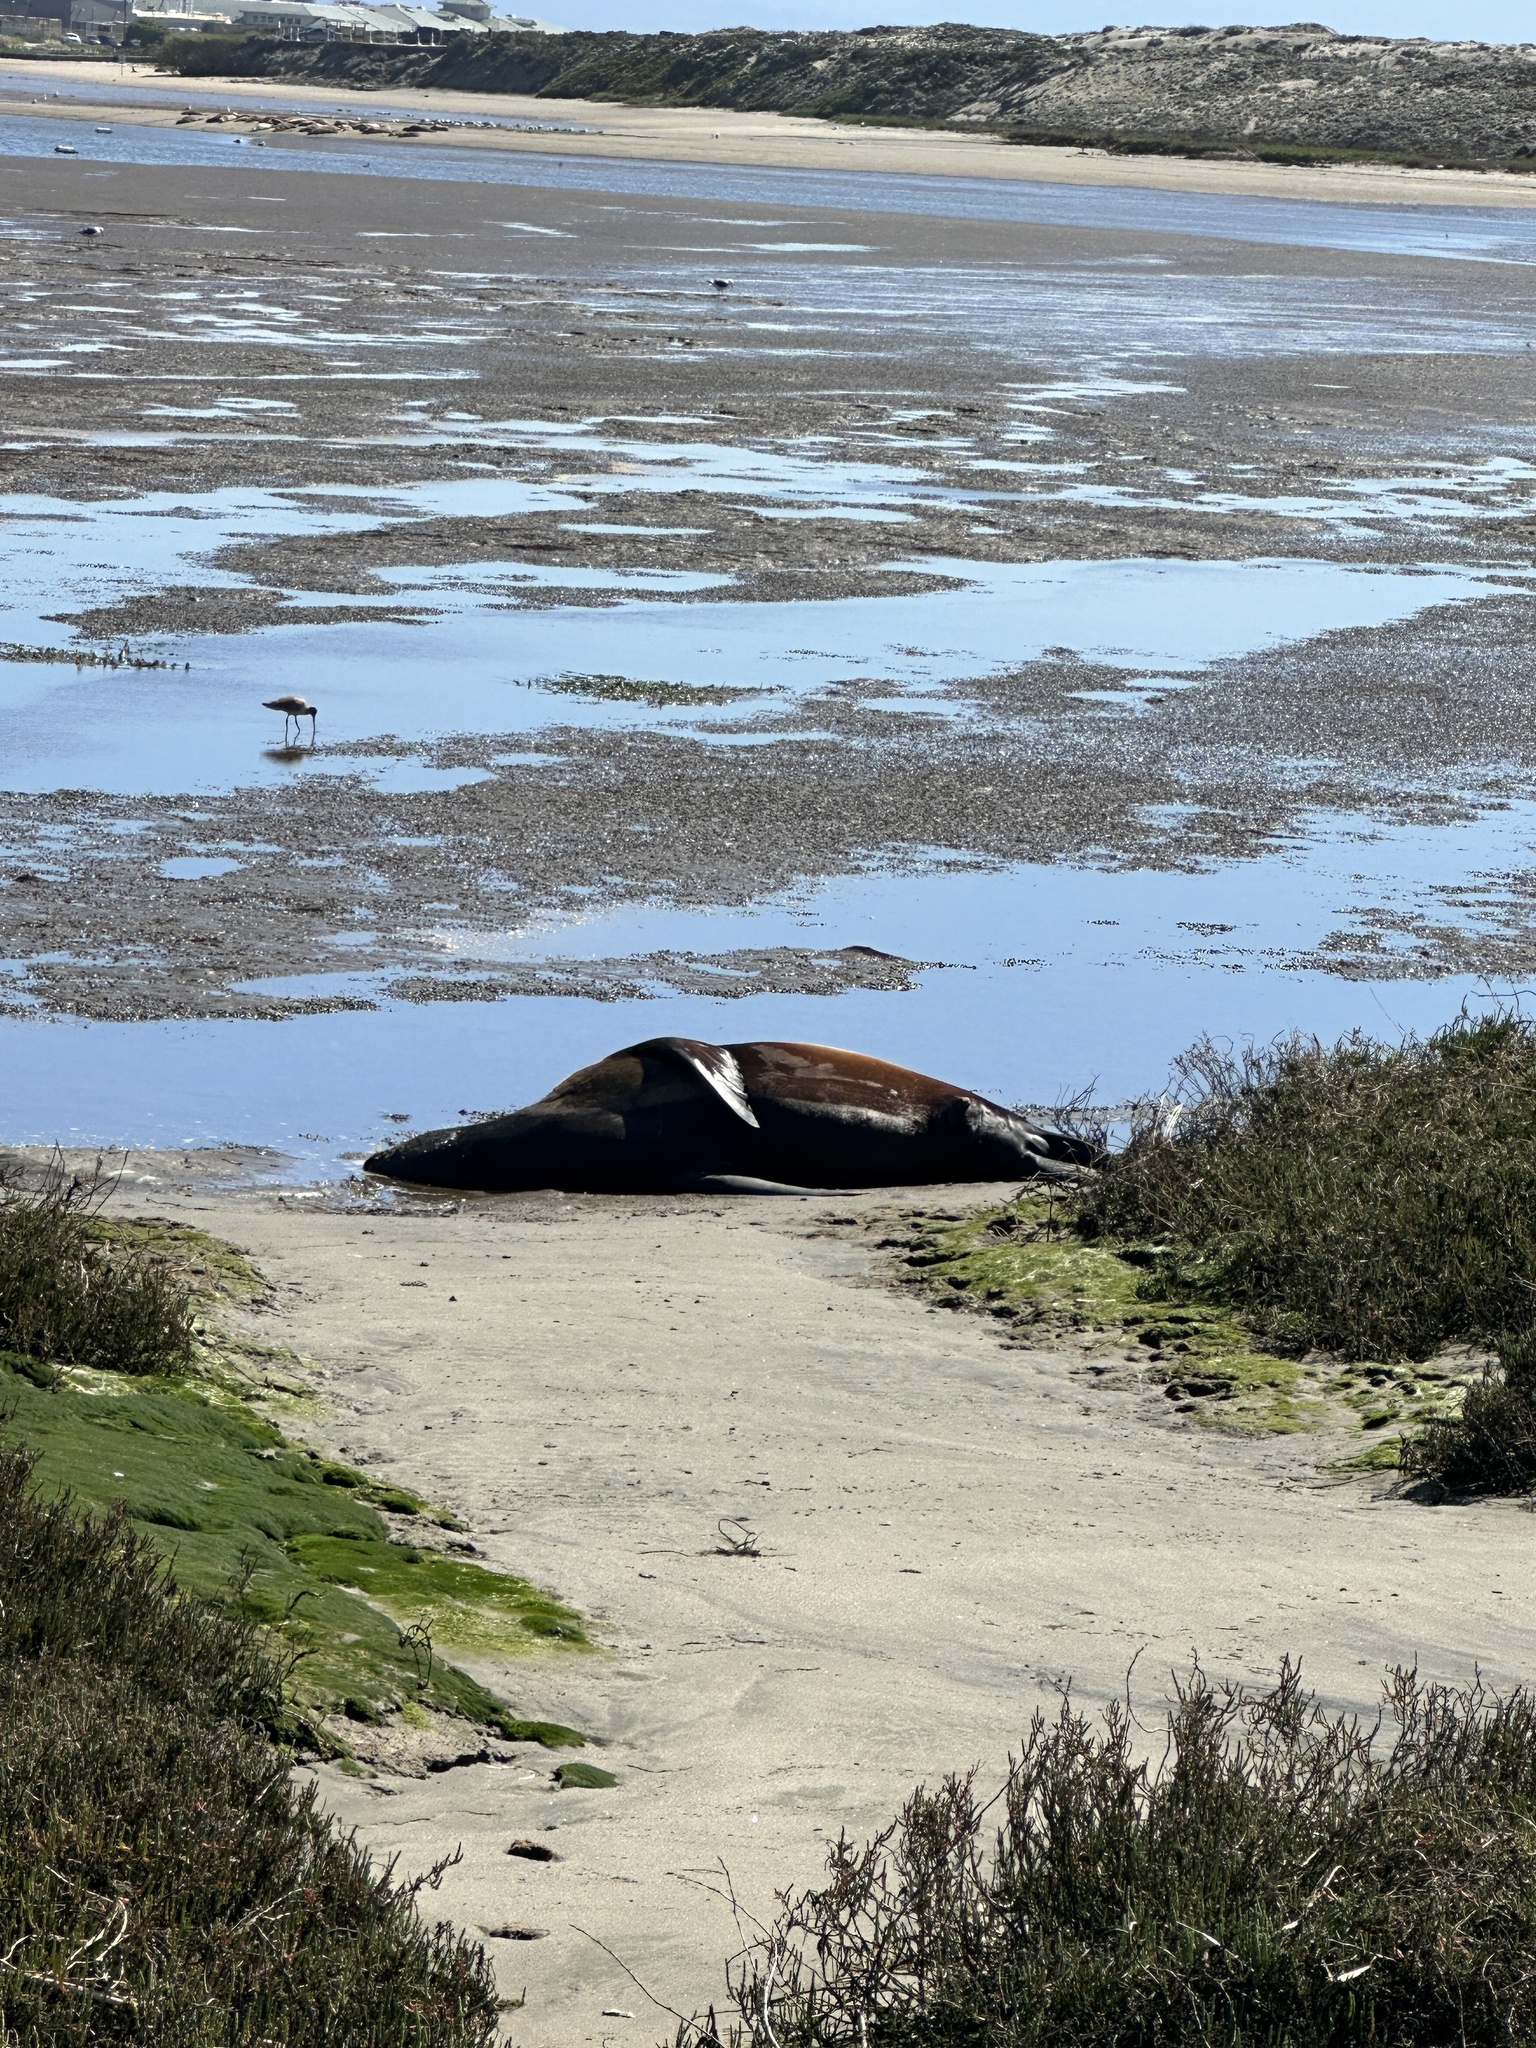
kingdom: Animalia
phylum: Chordata
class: Mammalia
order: Carnivora
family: Otariidae
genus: Zalophus
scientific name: Zalophus californianus
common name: California sea lion
